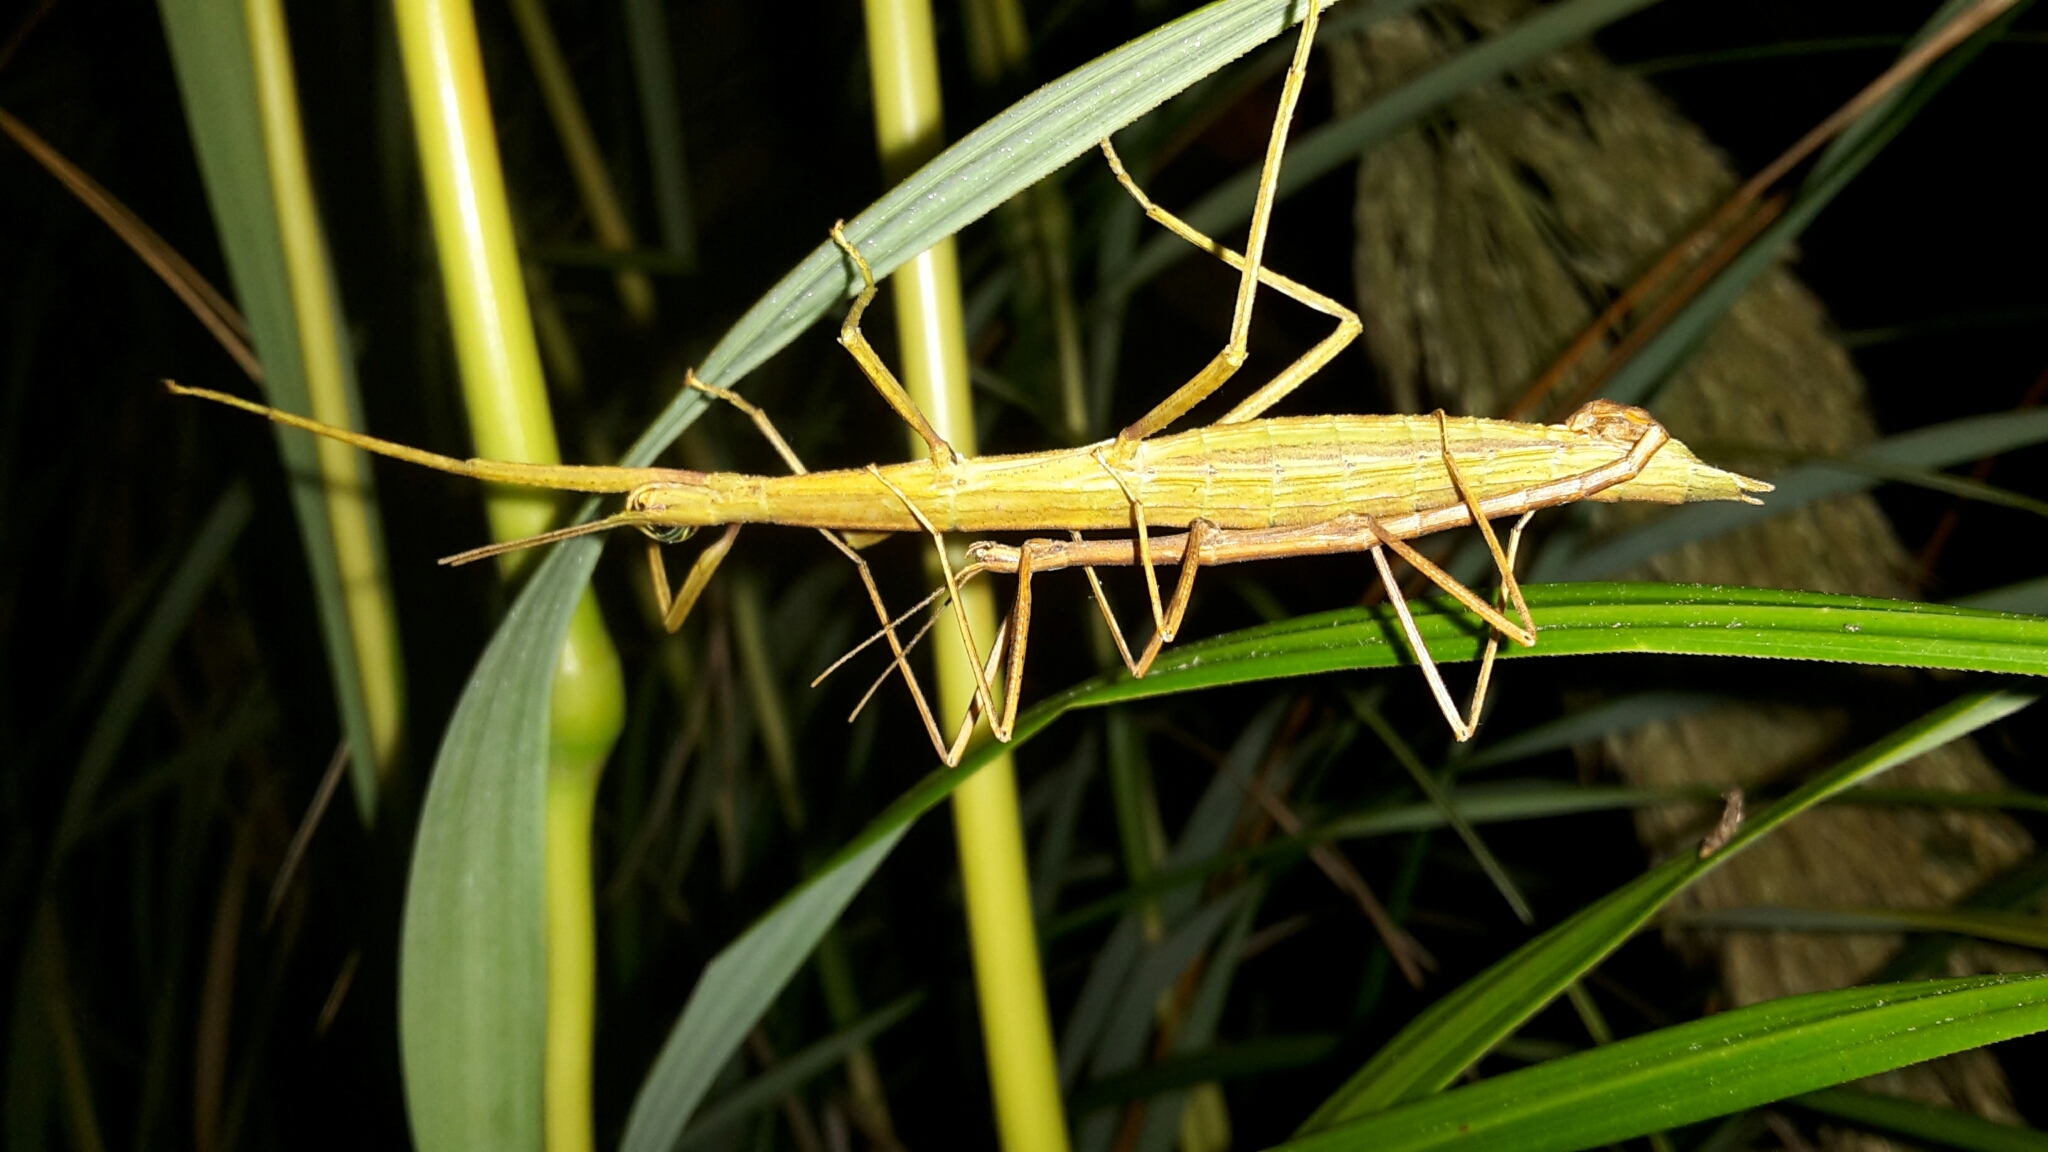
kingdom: Animalia
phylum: Arthropoda
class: Insecta
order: Phasmida
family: Phasmatidae
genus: Tectarchus
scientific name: Tectarchus huttoni
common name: The common ridge-backed stick insect
